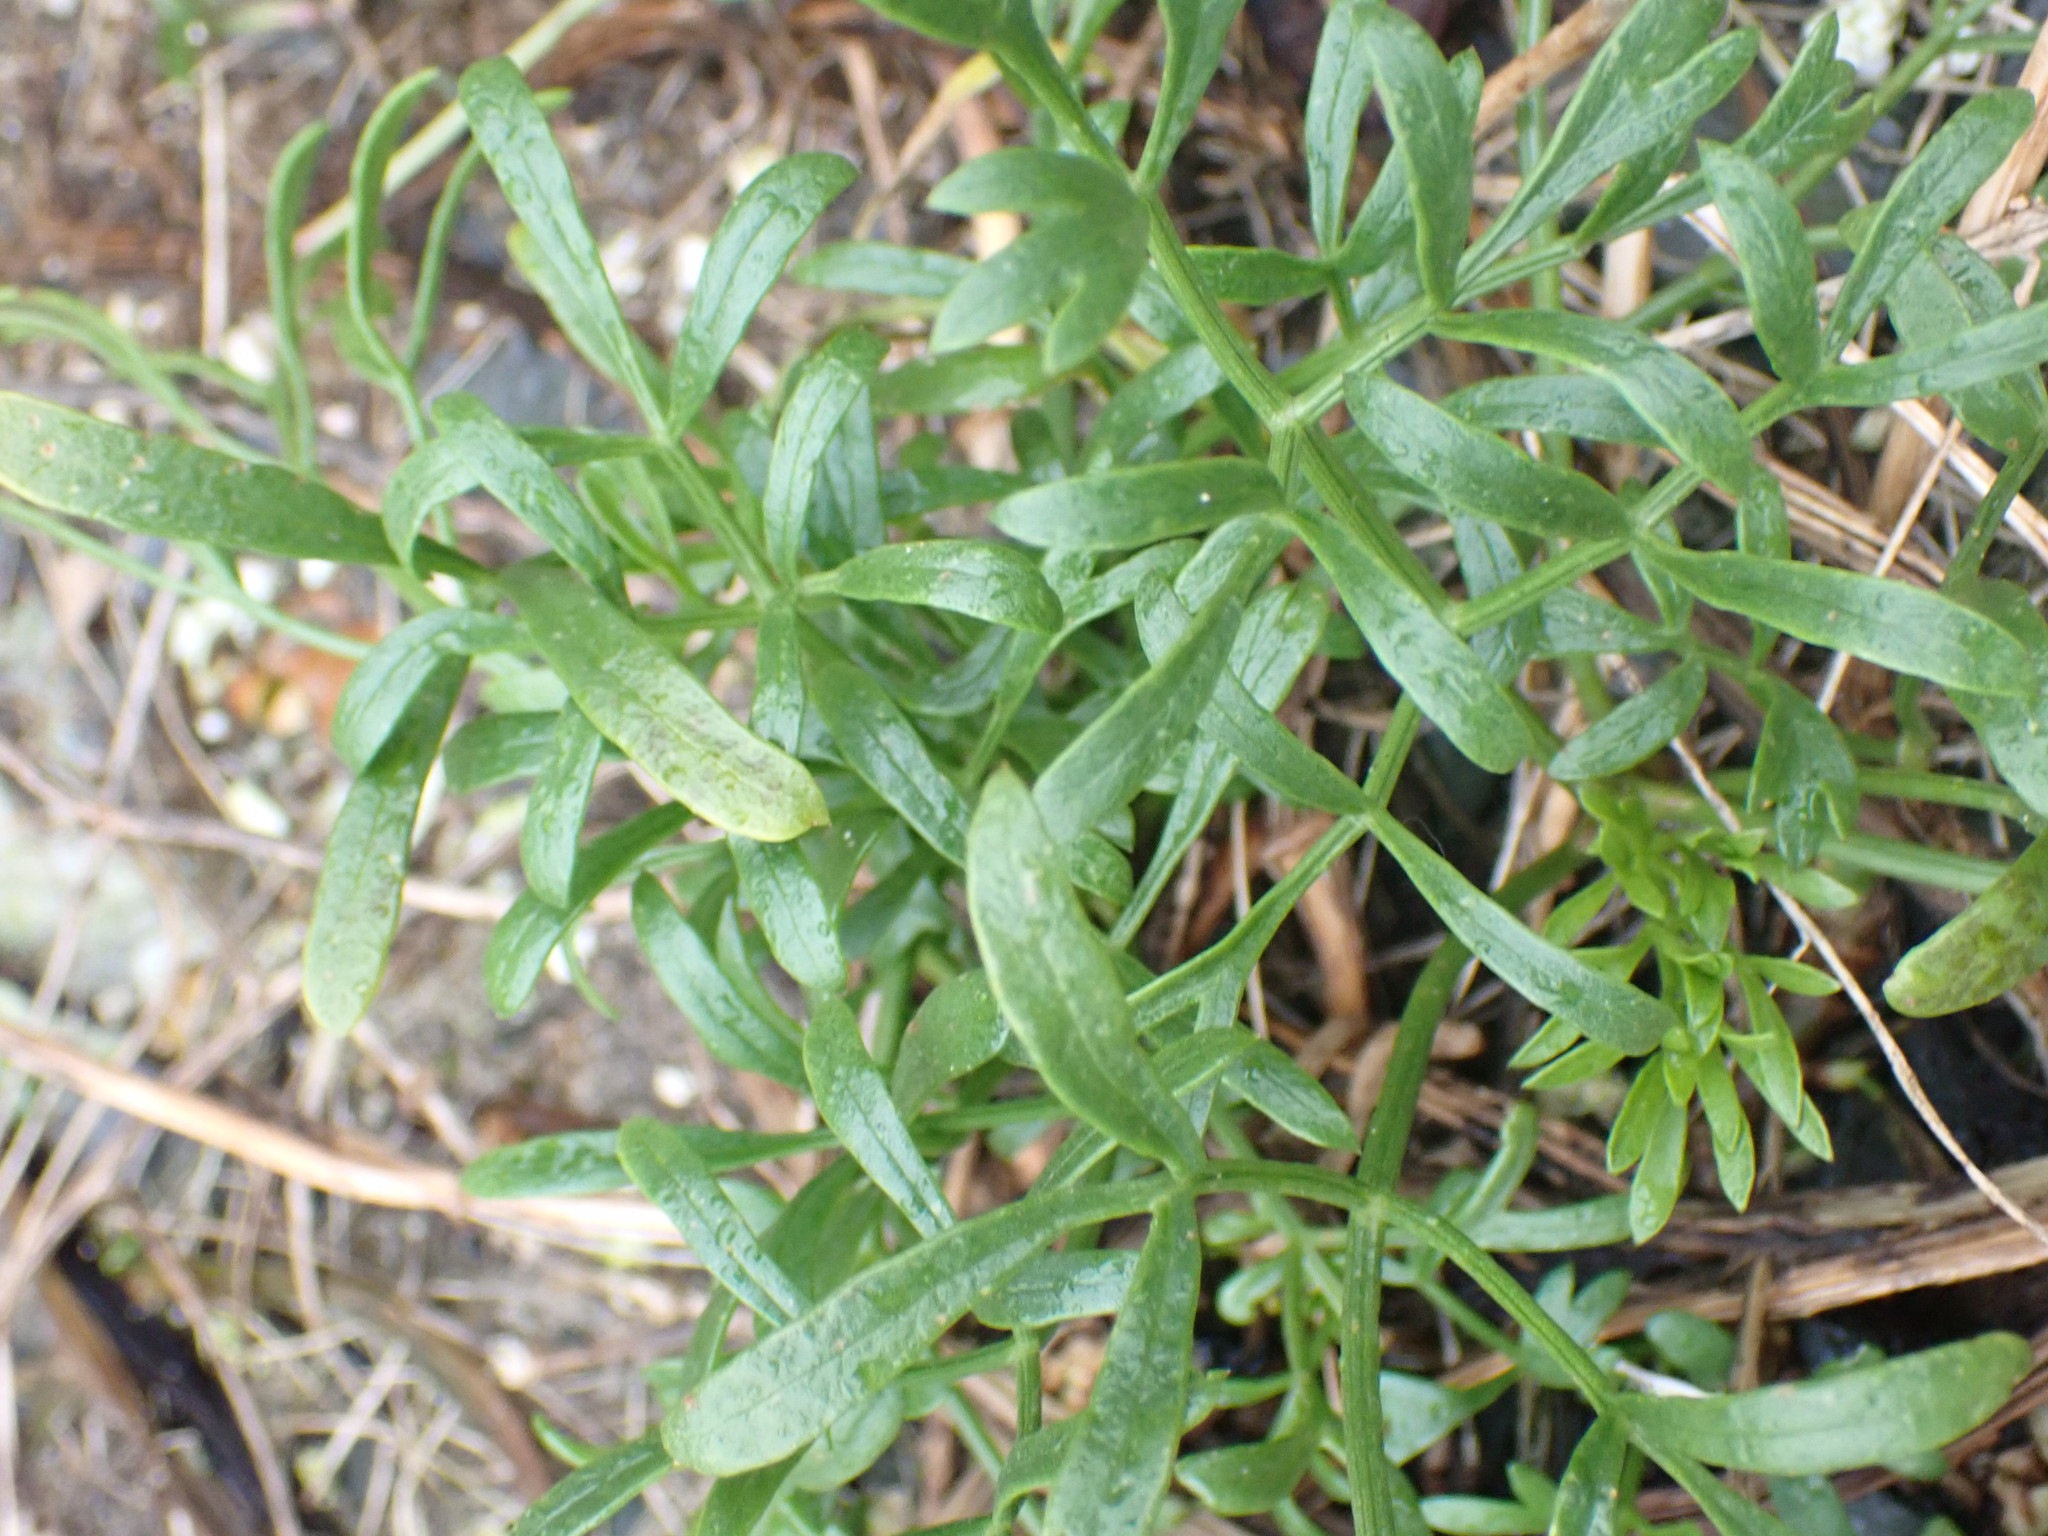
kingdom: Plantae
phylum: Tracheophyta
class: Magnoliopsida
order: Apiales
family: Apiaceae
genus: Crithmum
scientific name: Crithmum maritimum
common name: Rock samphire
